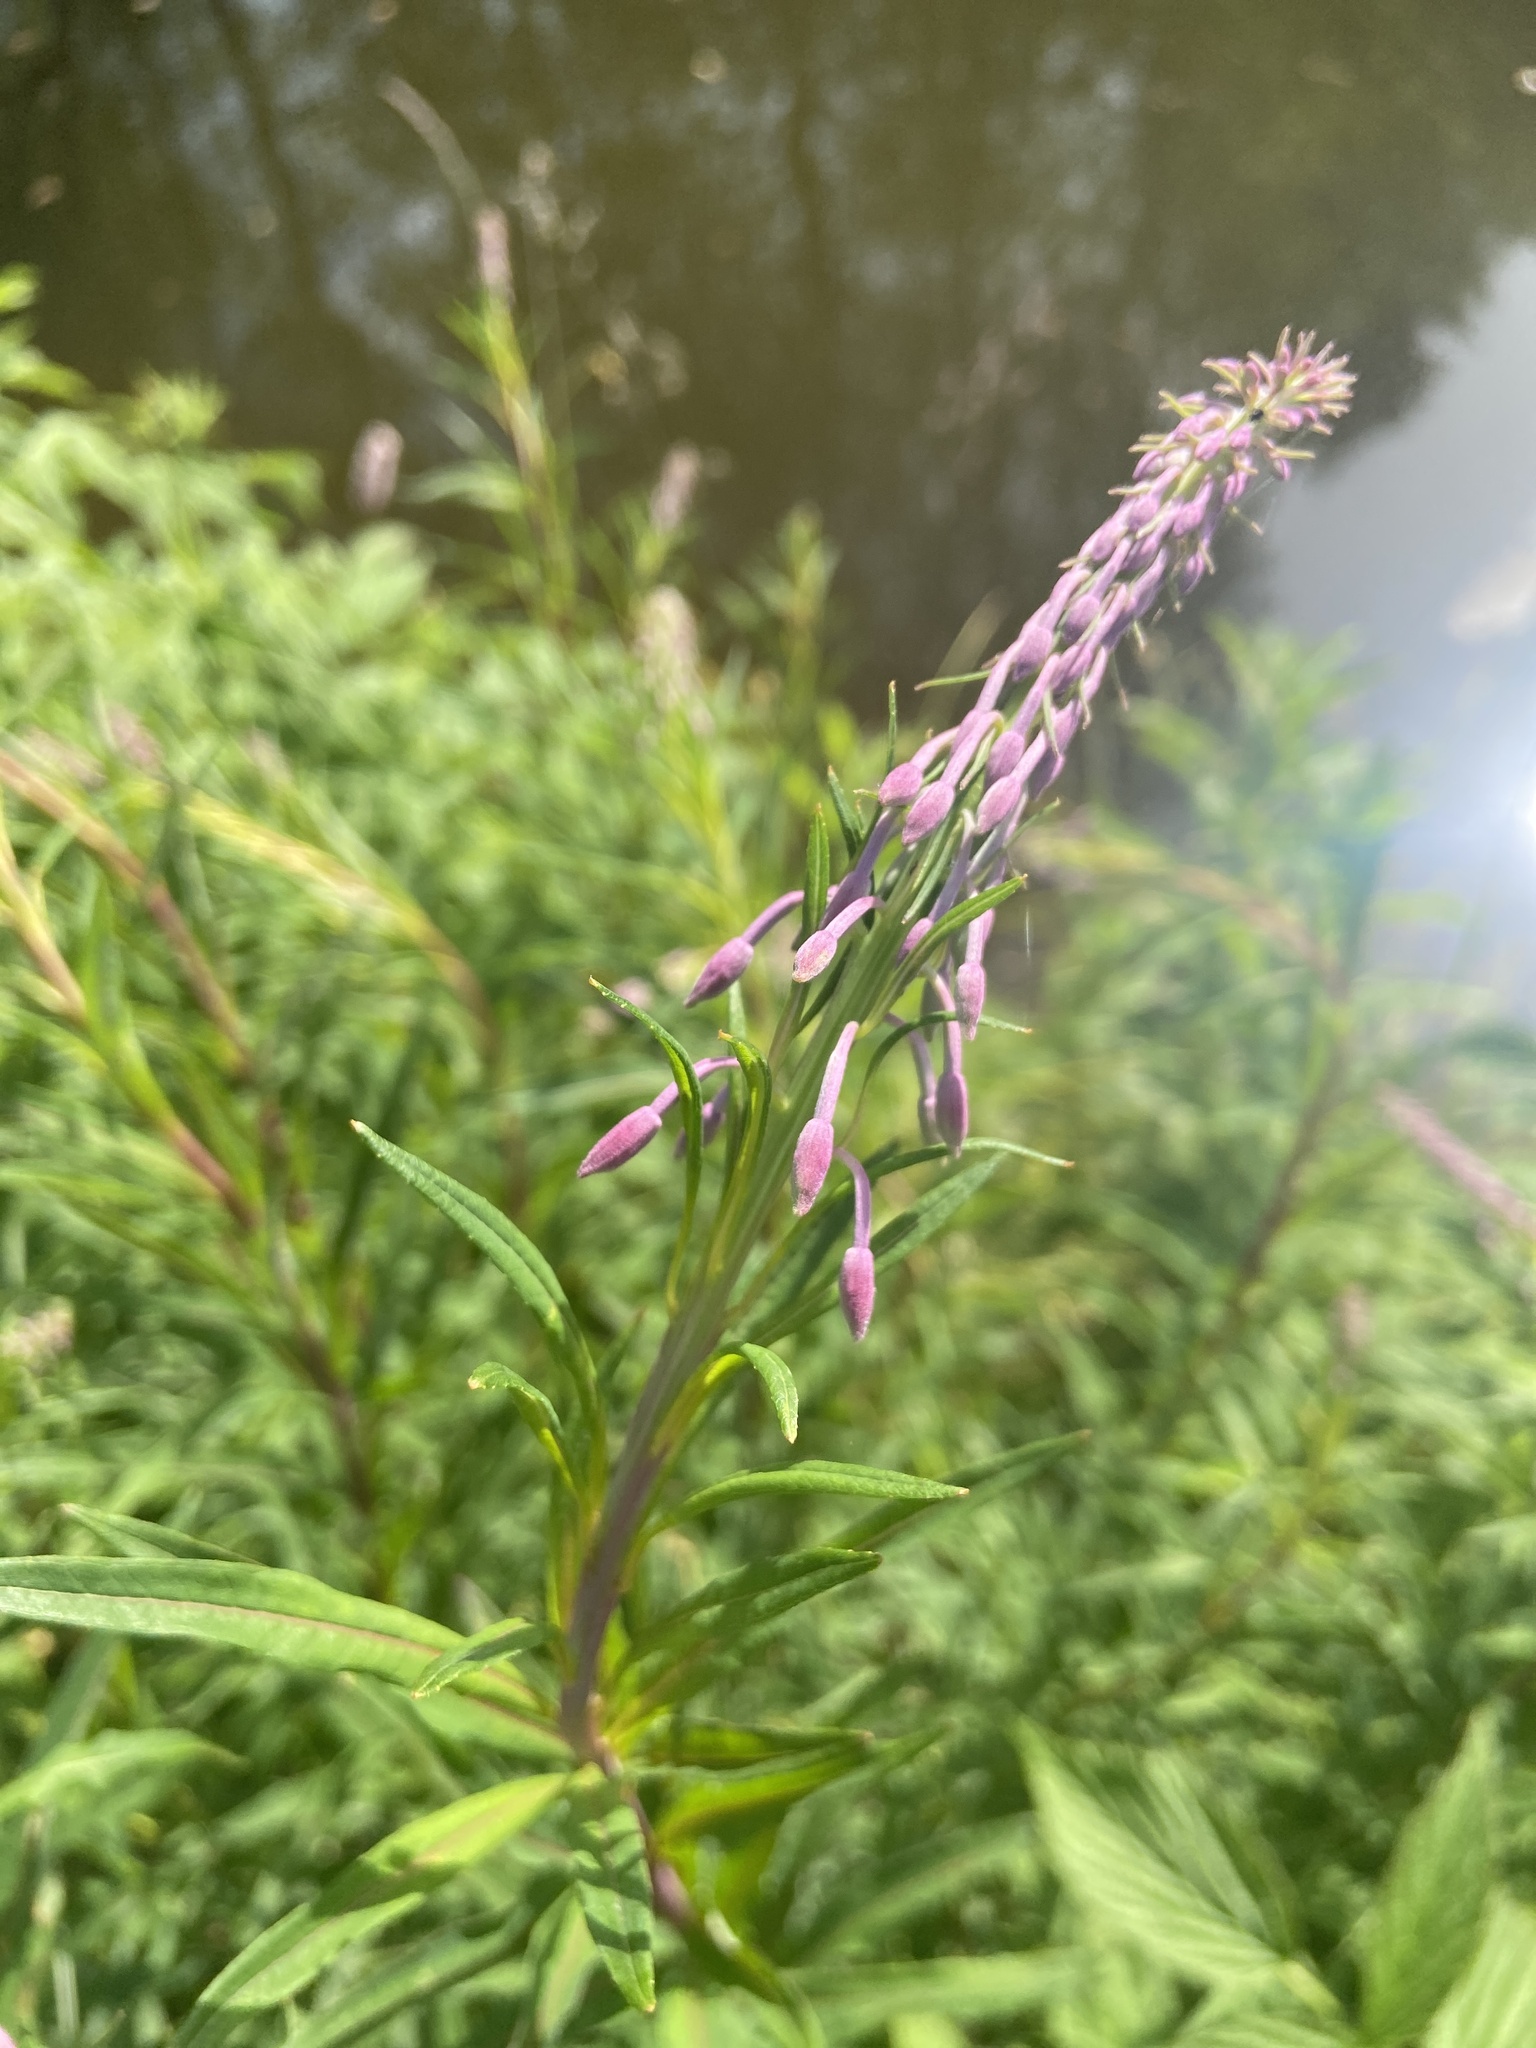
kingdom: Plantae
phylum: Tracheophyta
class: Magnoliopsida
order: Myrtales
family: Onagraceae
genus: Chamaenerion
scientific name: Chamaenerion angustifolium
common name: Fireweed
